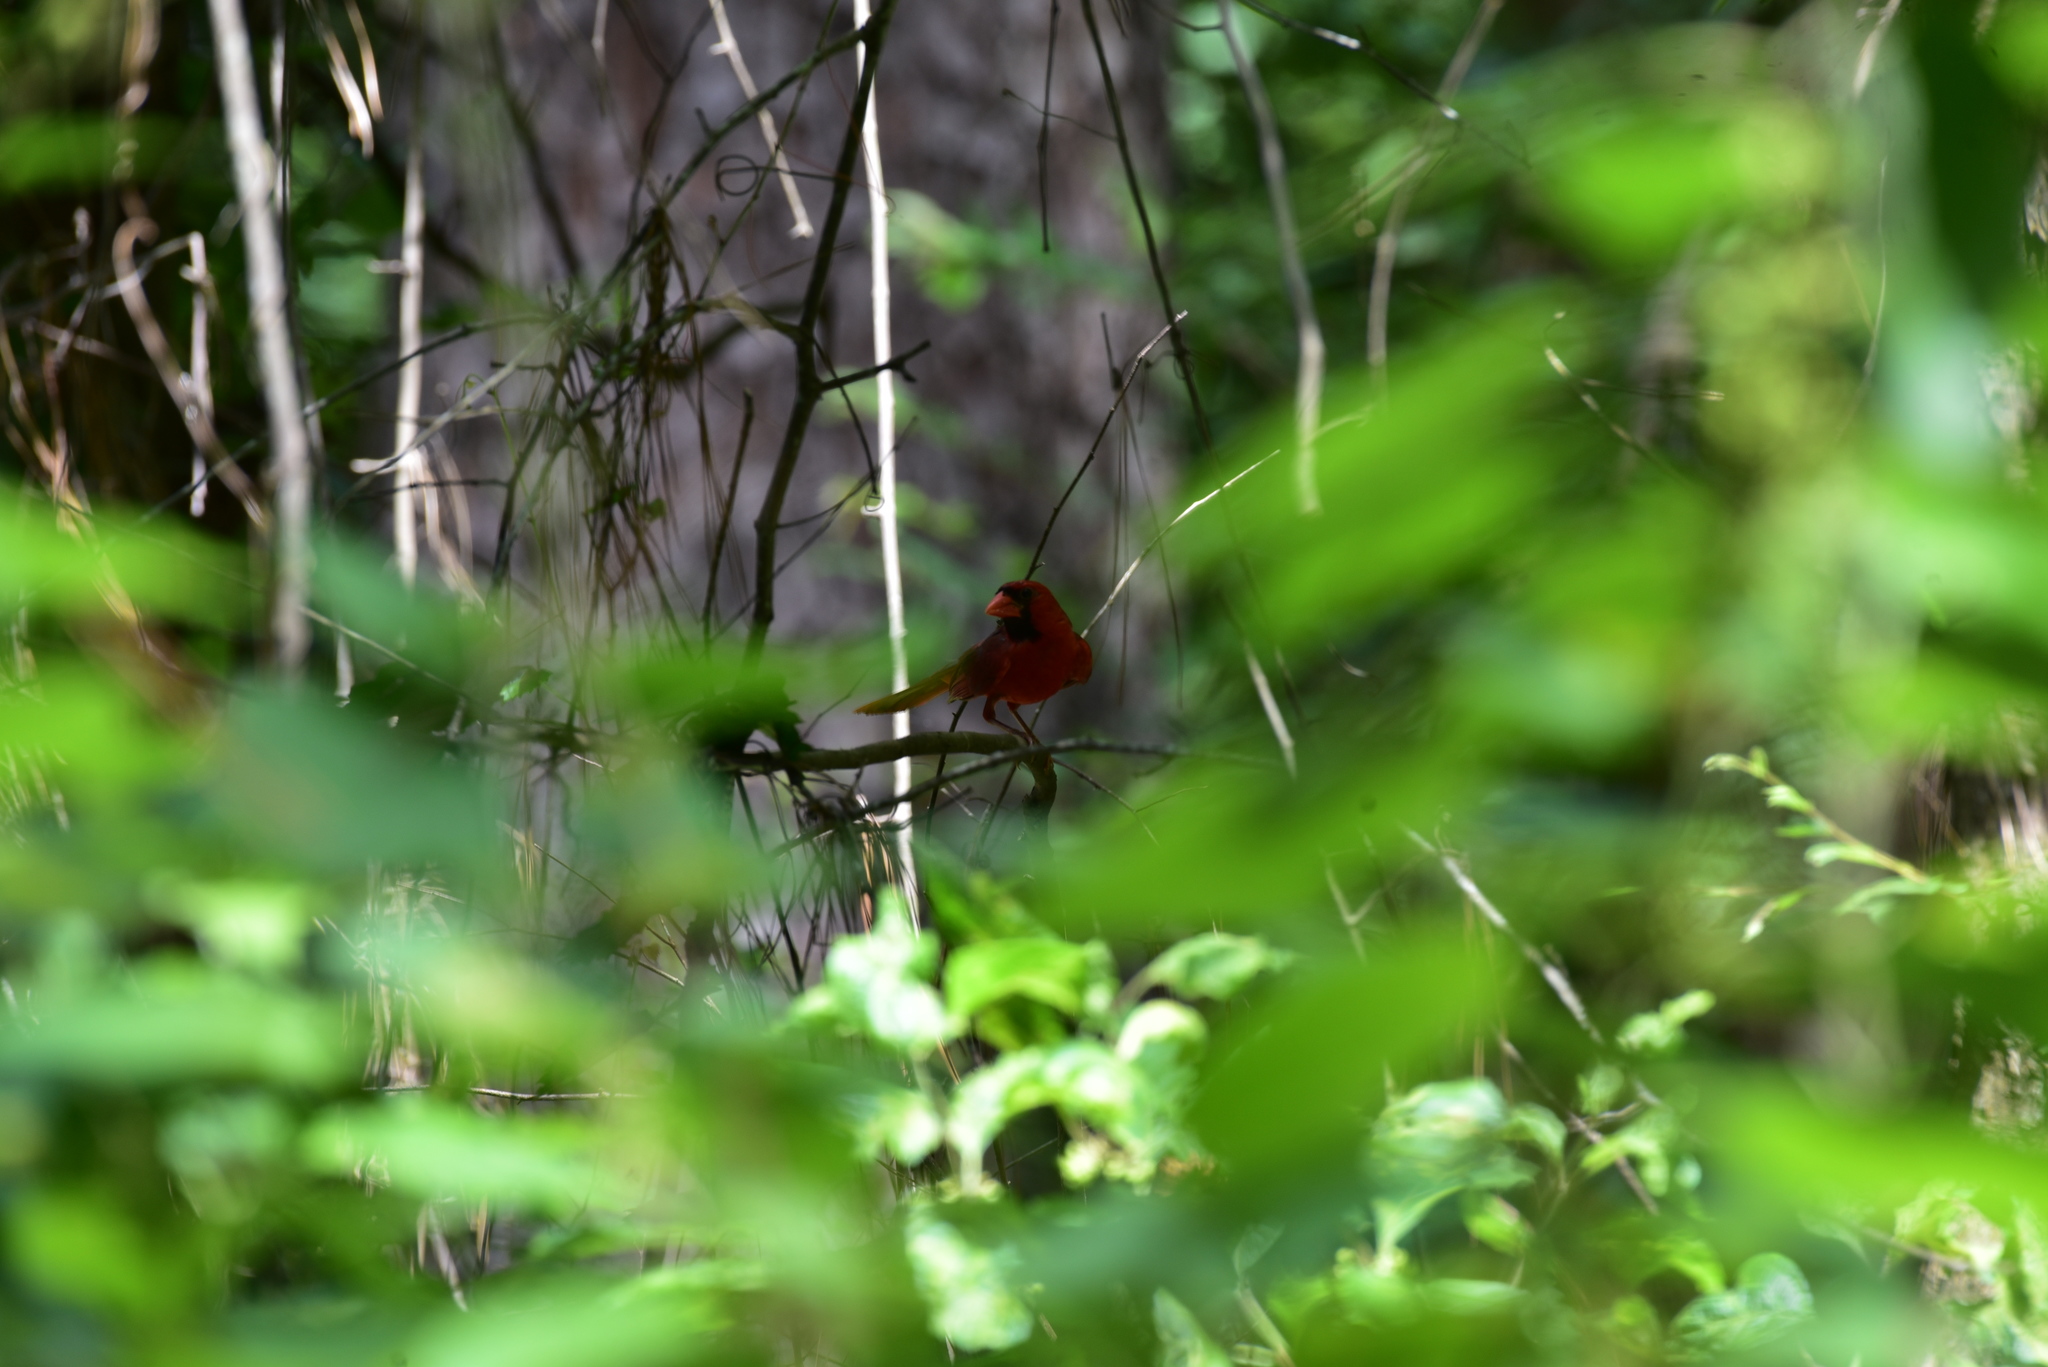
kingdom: Animalia
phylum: Chordata
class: Aves
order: Passeriformes
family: Cardinalidae
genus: Cardinalis
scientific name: Cardinalis cardinalis
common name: Northern cardinal
